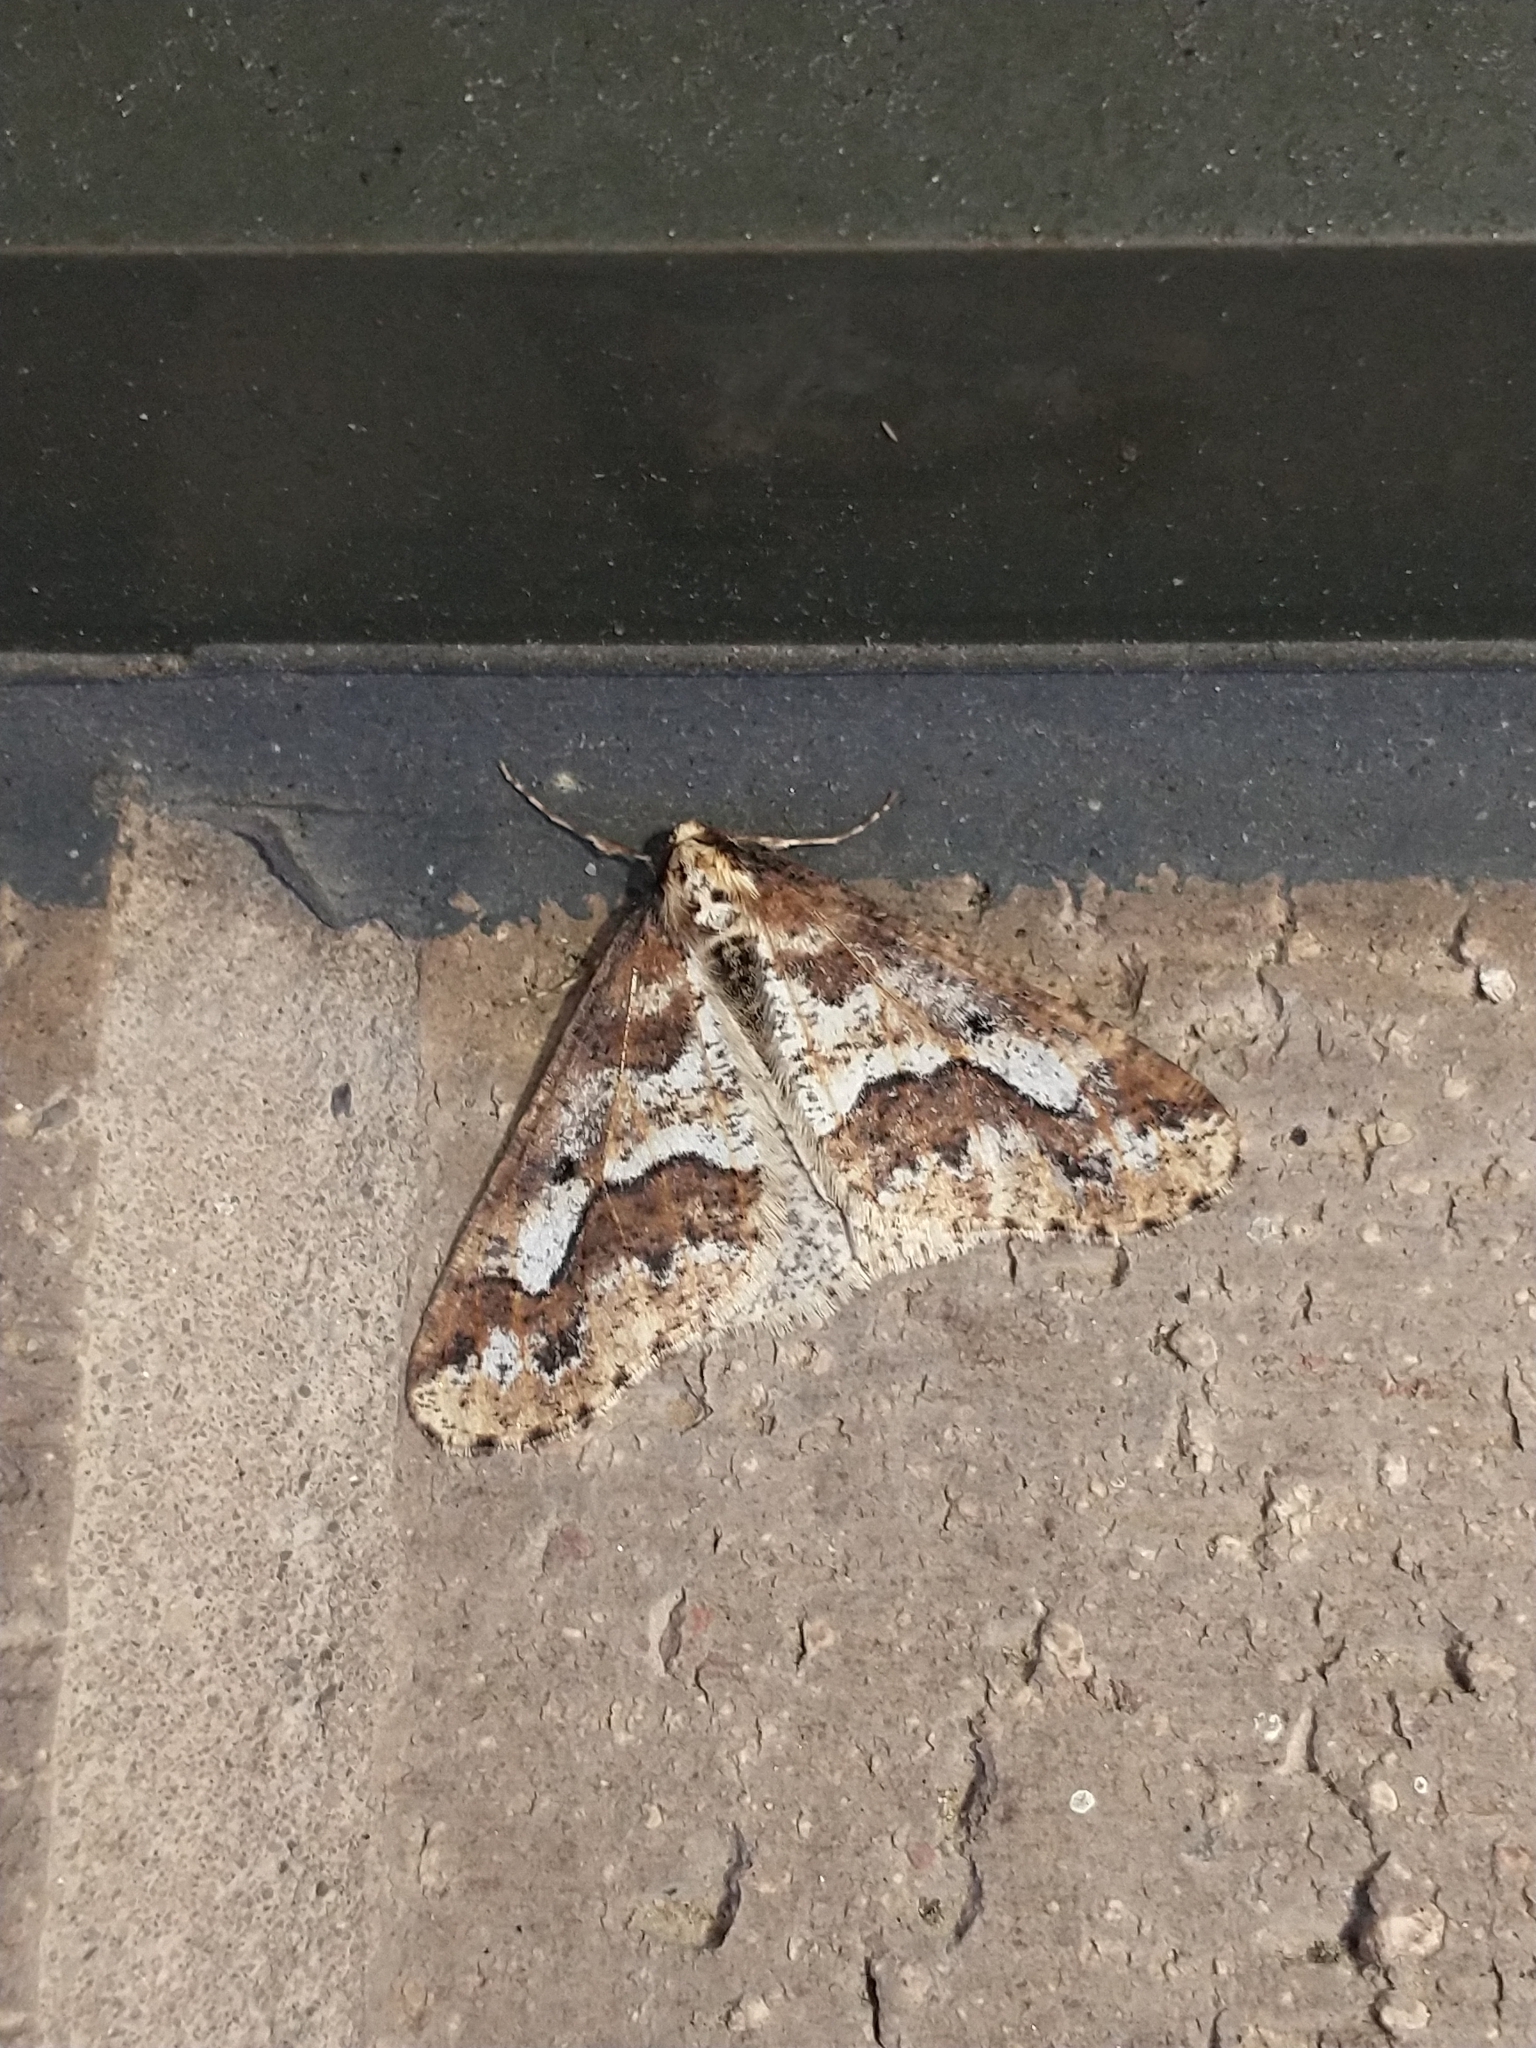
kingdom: Animalia
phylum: Arthropoda
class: Insecta
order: Lepidoptera
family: Geometridae
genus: Erannis
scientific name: Erannis defoliaria
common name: Mottled umber
